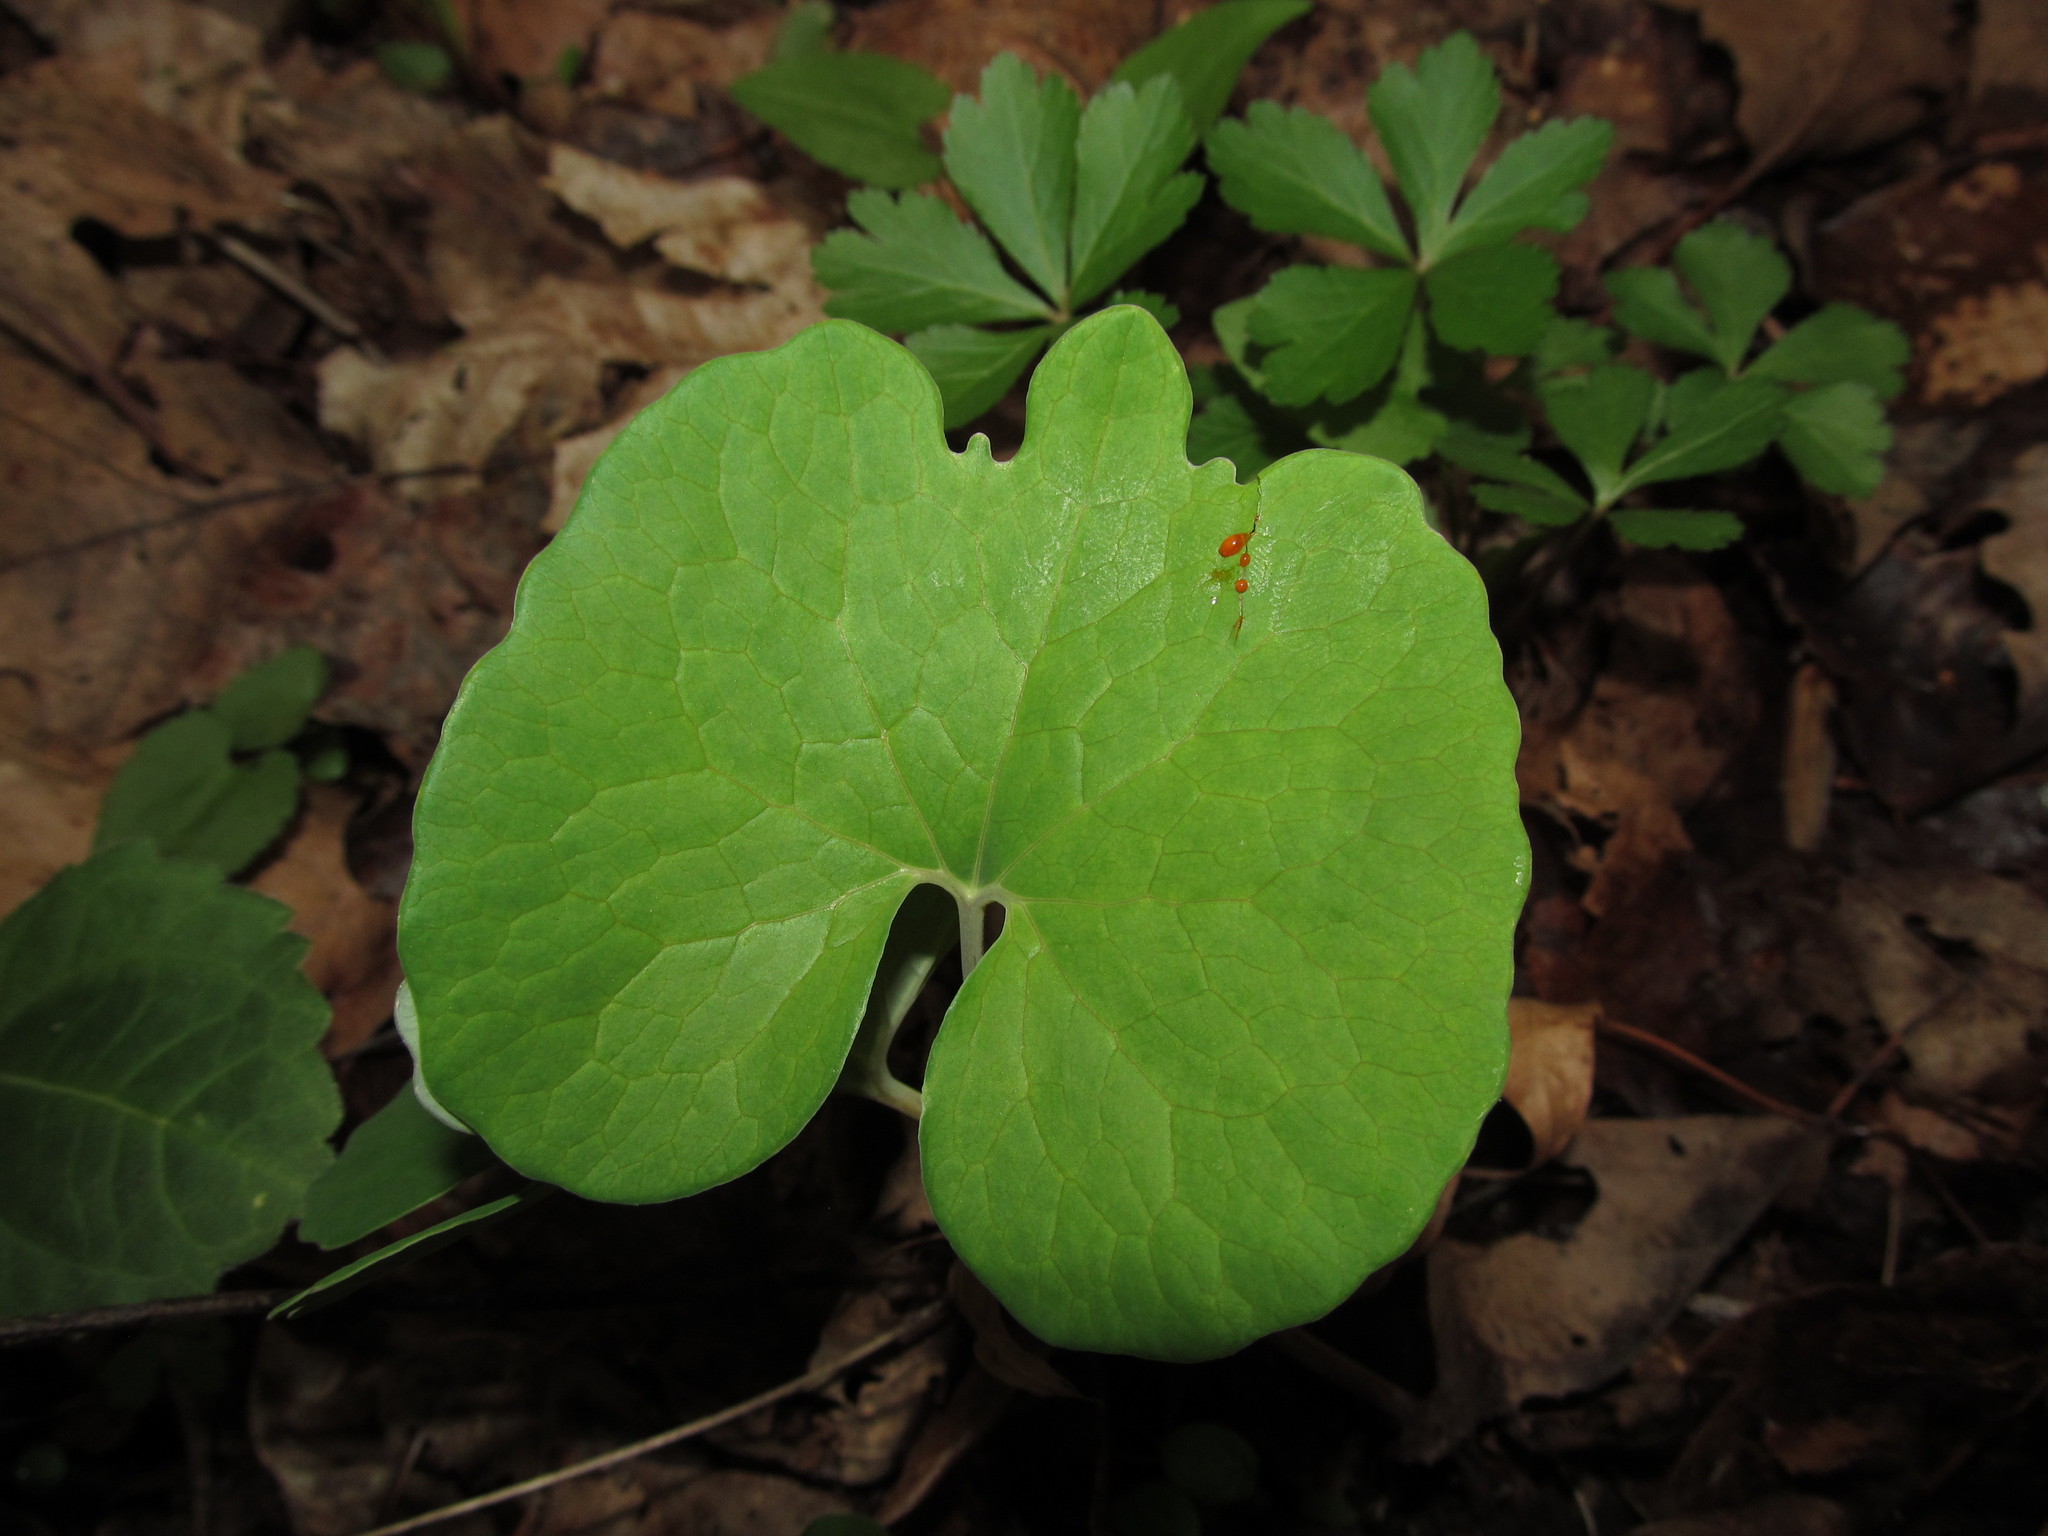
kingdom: Plantae
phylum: Tracheophyta
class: Magnoliopsida
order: Ranunculales
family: Papaveraceae
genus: Sanguinaria
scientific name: Sanguinaria canadensis
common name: Bloodroot
